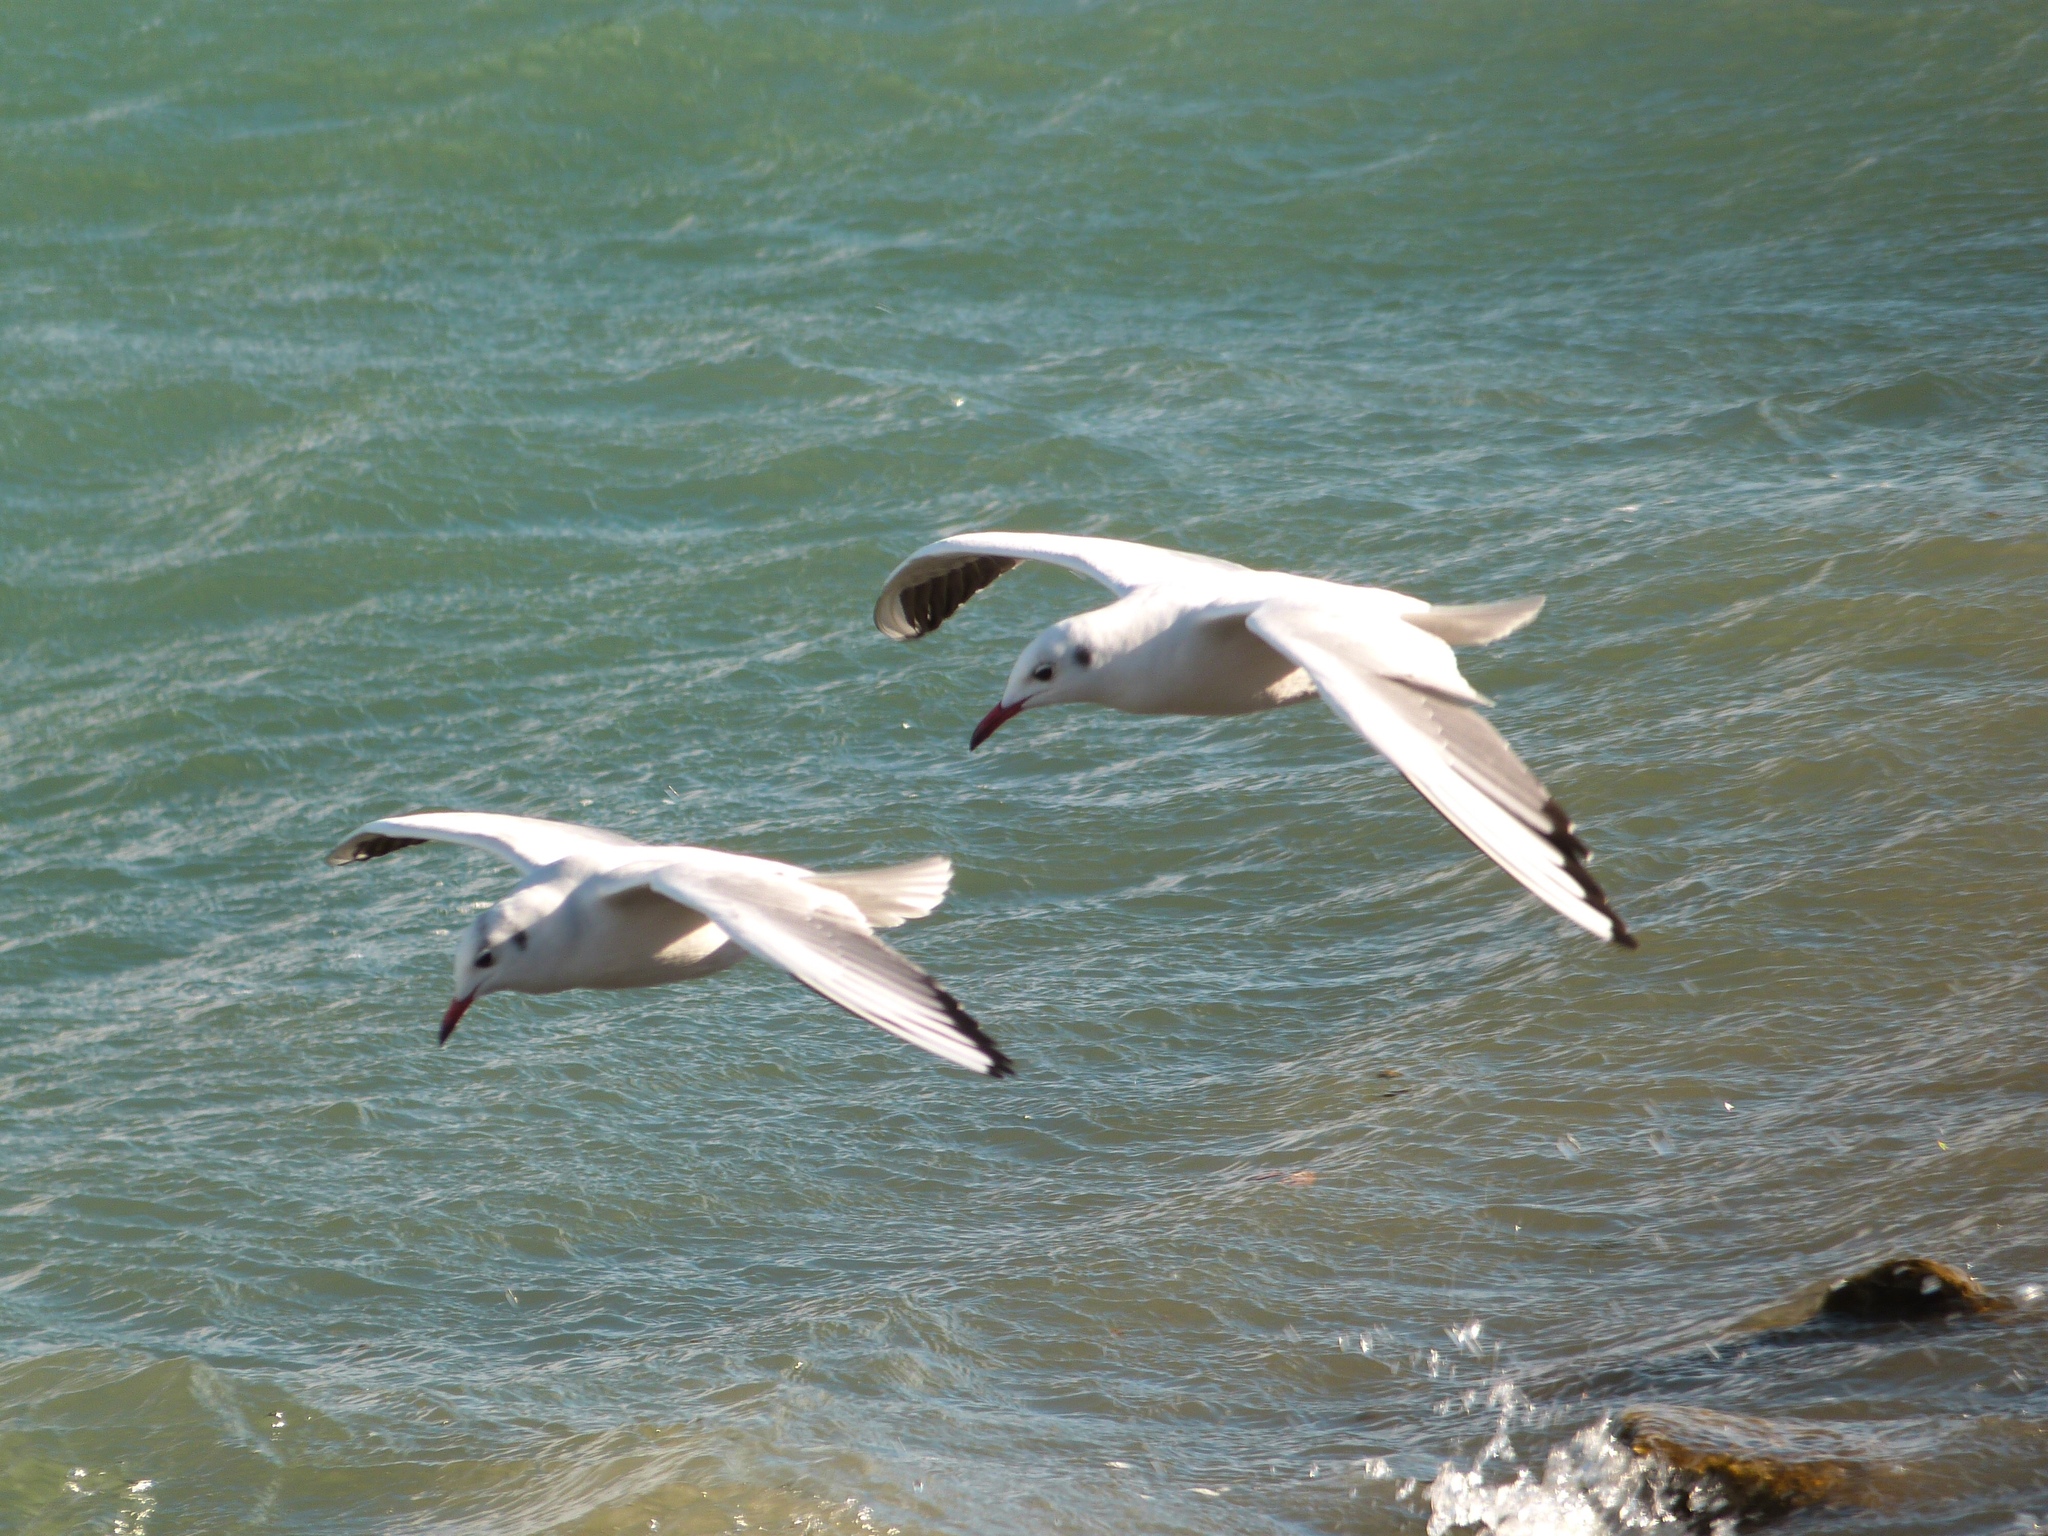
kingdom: Animalia
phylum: Chordata
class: Aves
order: Charadriiformes
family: Laridae
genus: Chroicocephalus
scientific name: Chroicocephalus ridibundus
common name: Black-headed gull
